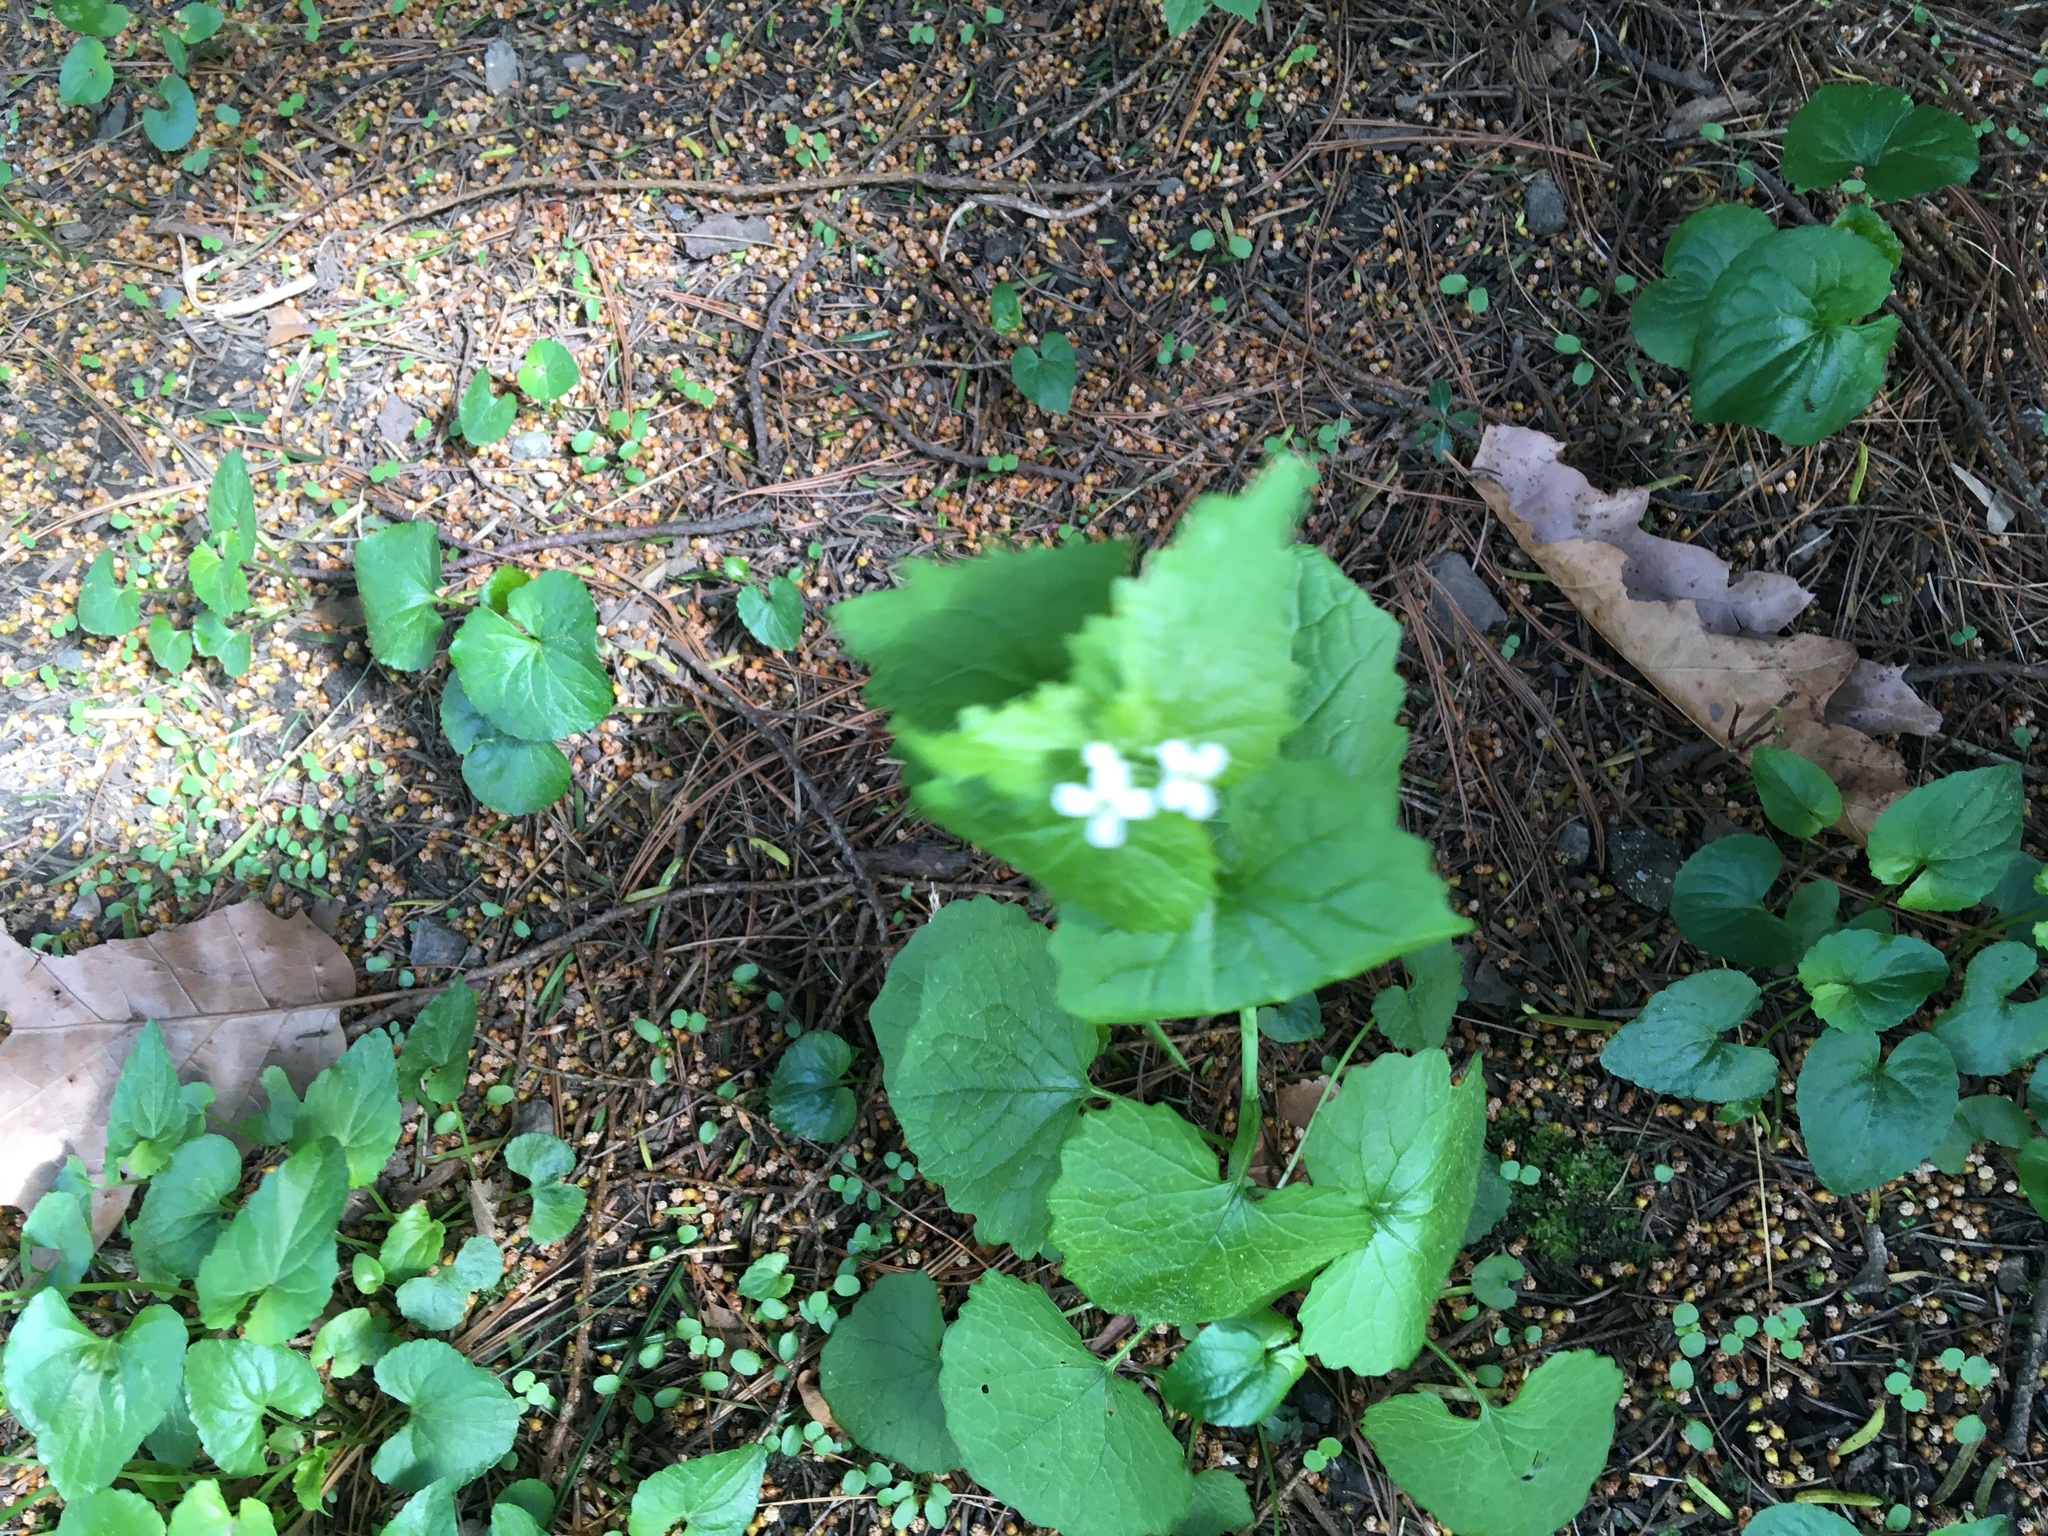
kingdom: Plantae
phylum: Tracheophyta
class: Magnoliopsida
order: Brassicales
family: Brassicaceae
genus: Alliaria
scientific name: Alliaria petiolata
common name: Garlic mustard
